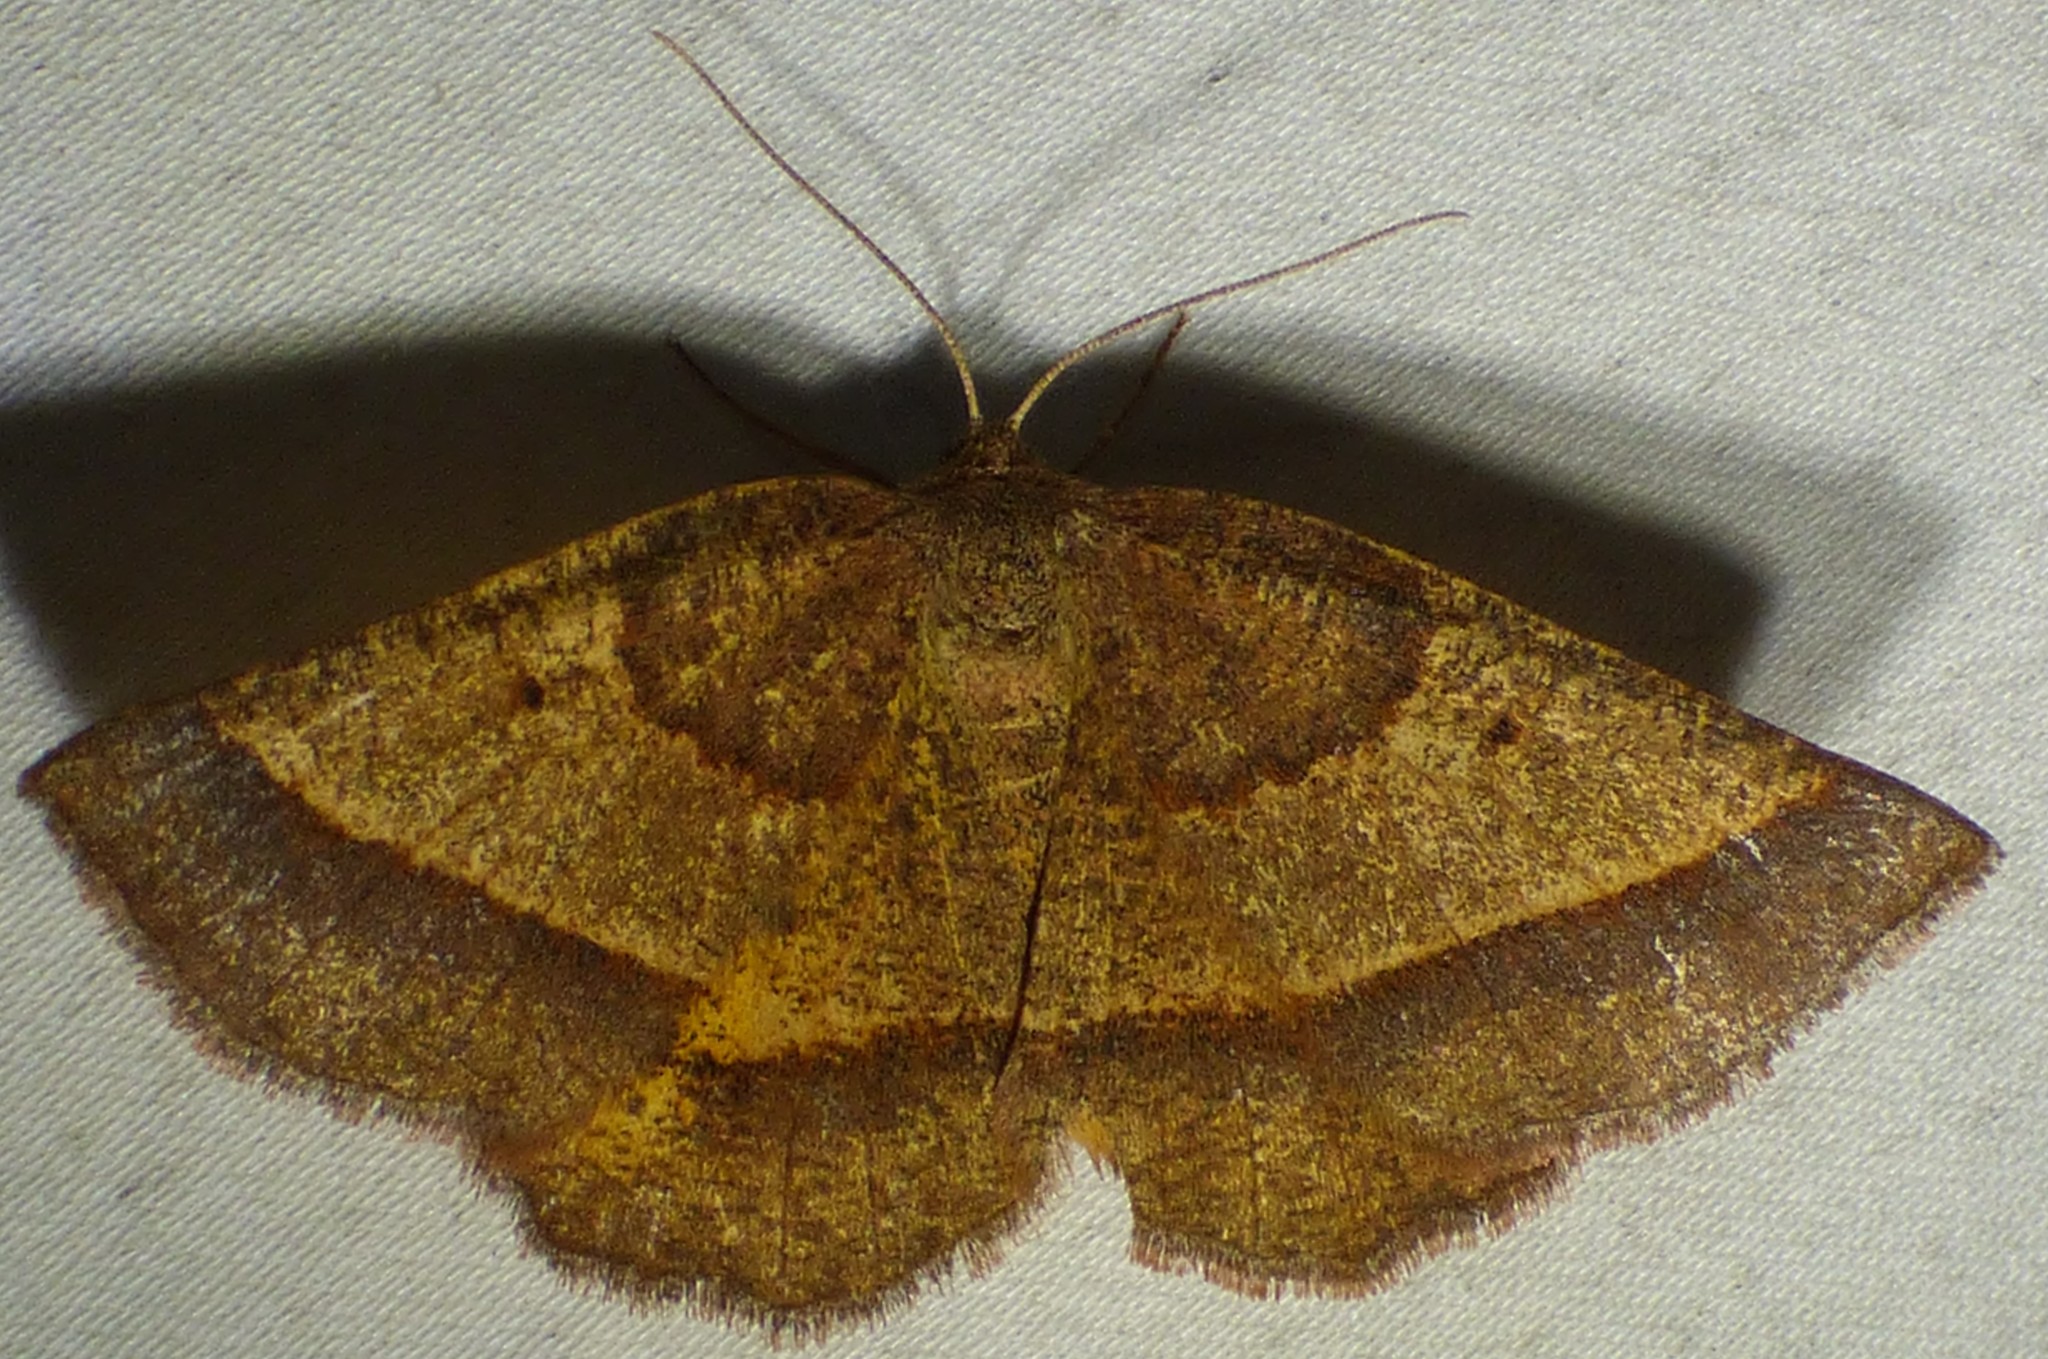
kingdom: Animalia
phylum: Arthropoda
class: Insecta
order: Lepidoptera
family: Geometridae
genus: Metarranthis
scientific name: Metarranthis obfirmaria
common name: Yellow-washed metarranthis
